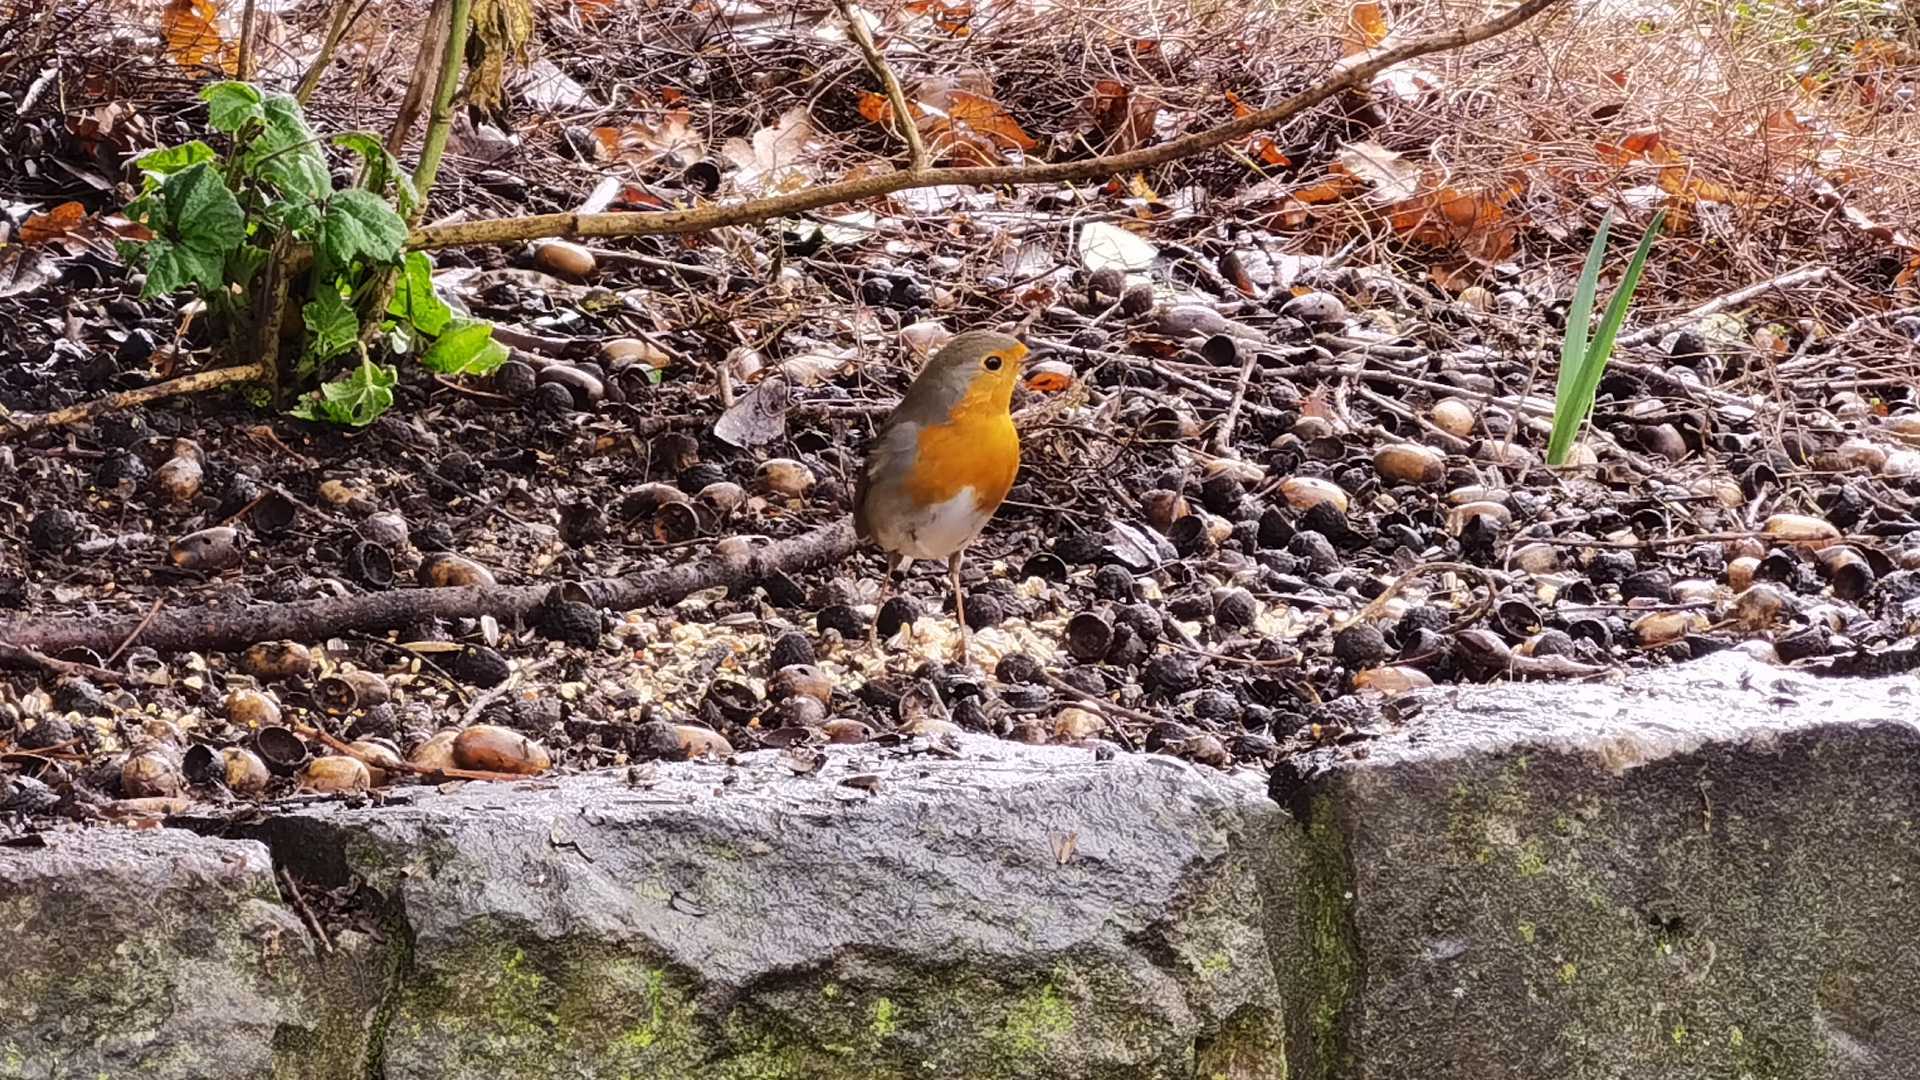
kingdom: Animalia
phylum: Chordata
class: Aves
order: Passeriformes
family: Muscicapidae
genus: Erithacus
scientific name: Erithacus rubecula
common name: European robin
